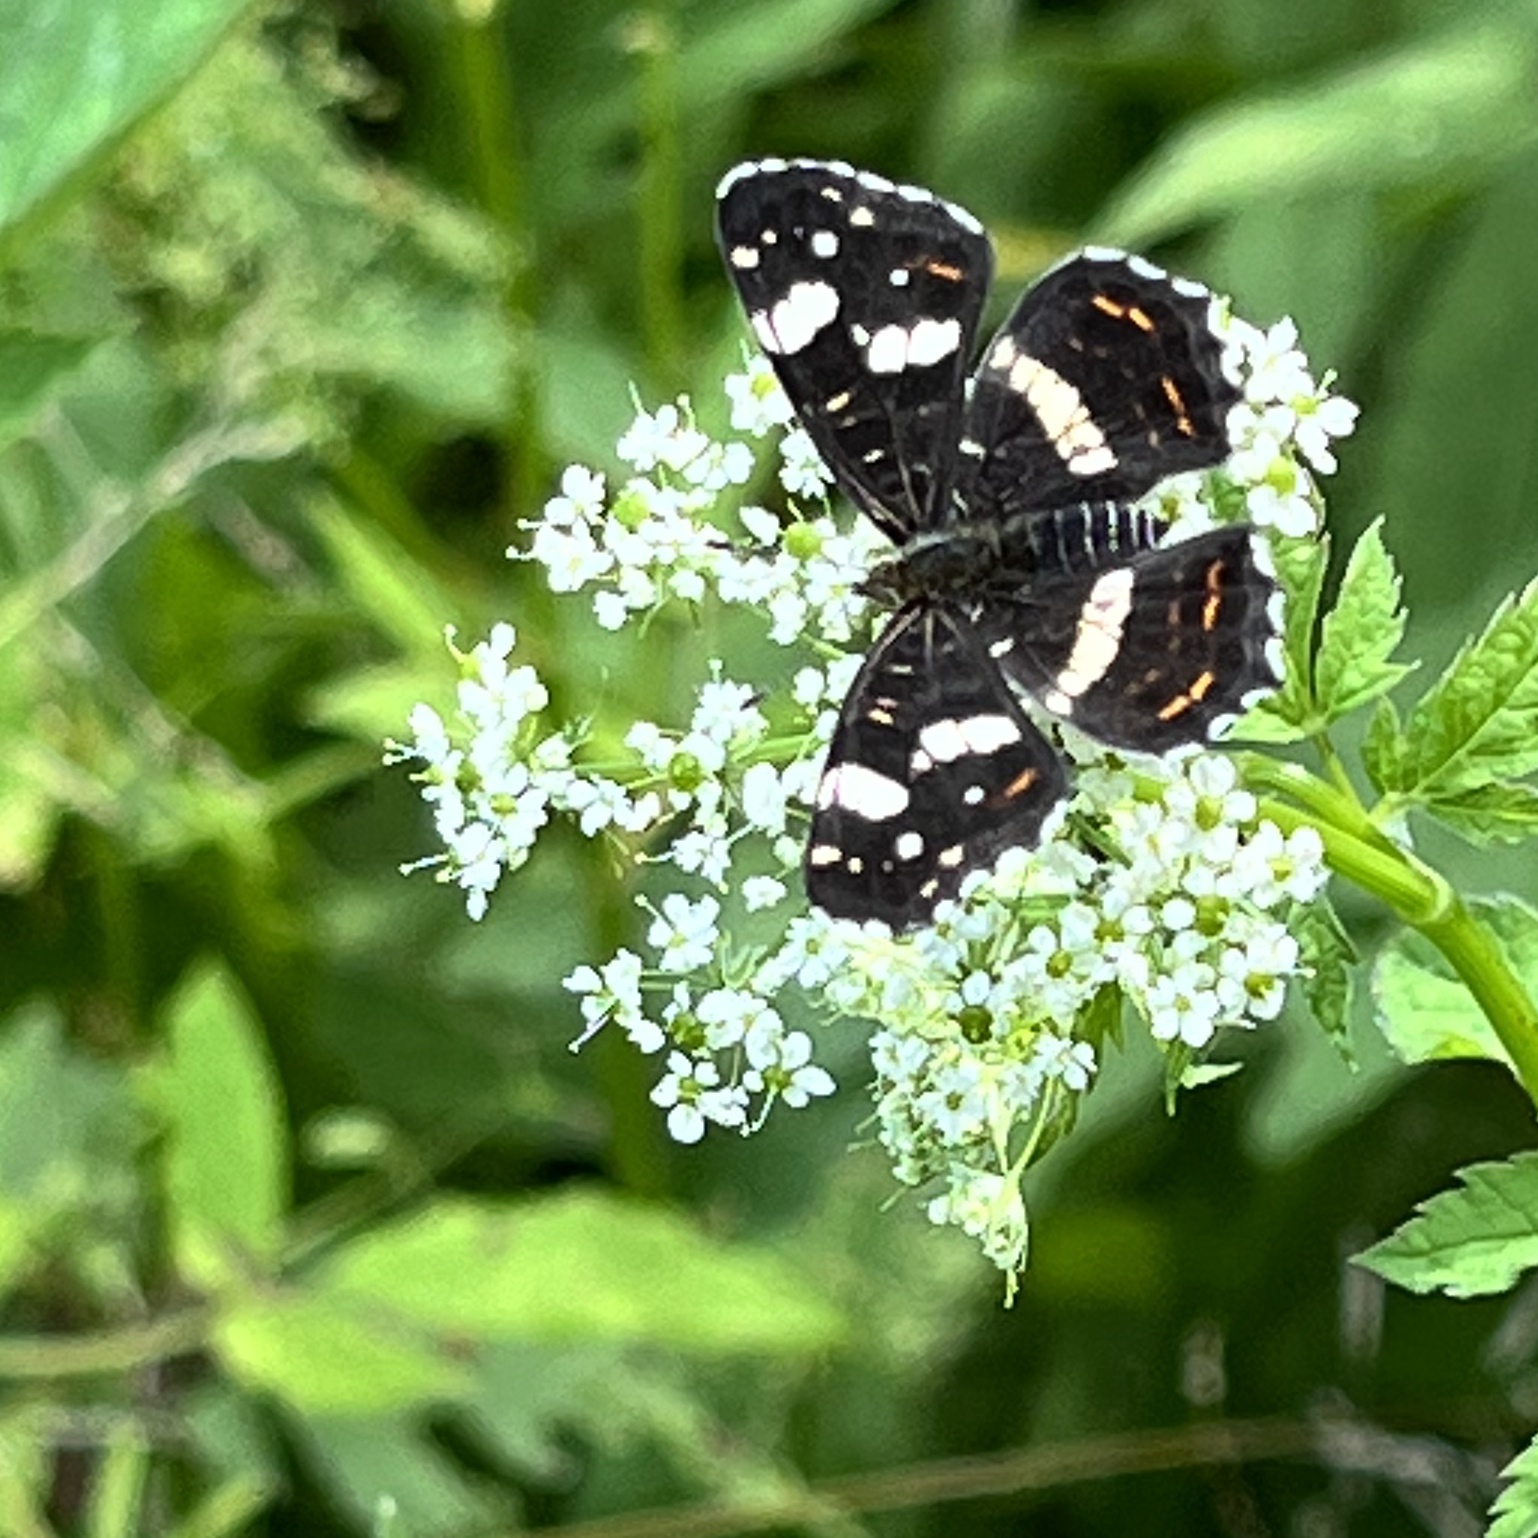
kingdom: Animalia
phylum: Arthropoda
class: Insecta
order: Lepidoptera
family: Nymphalidae
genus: Araschnia
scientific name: Araschnia levana
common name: Map butterfly
